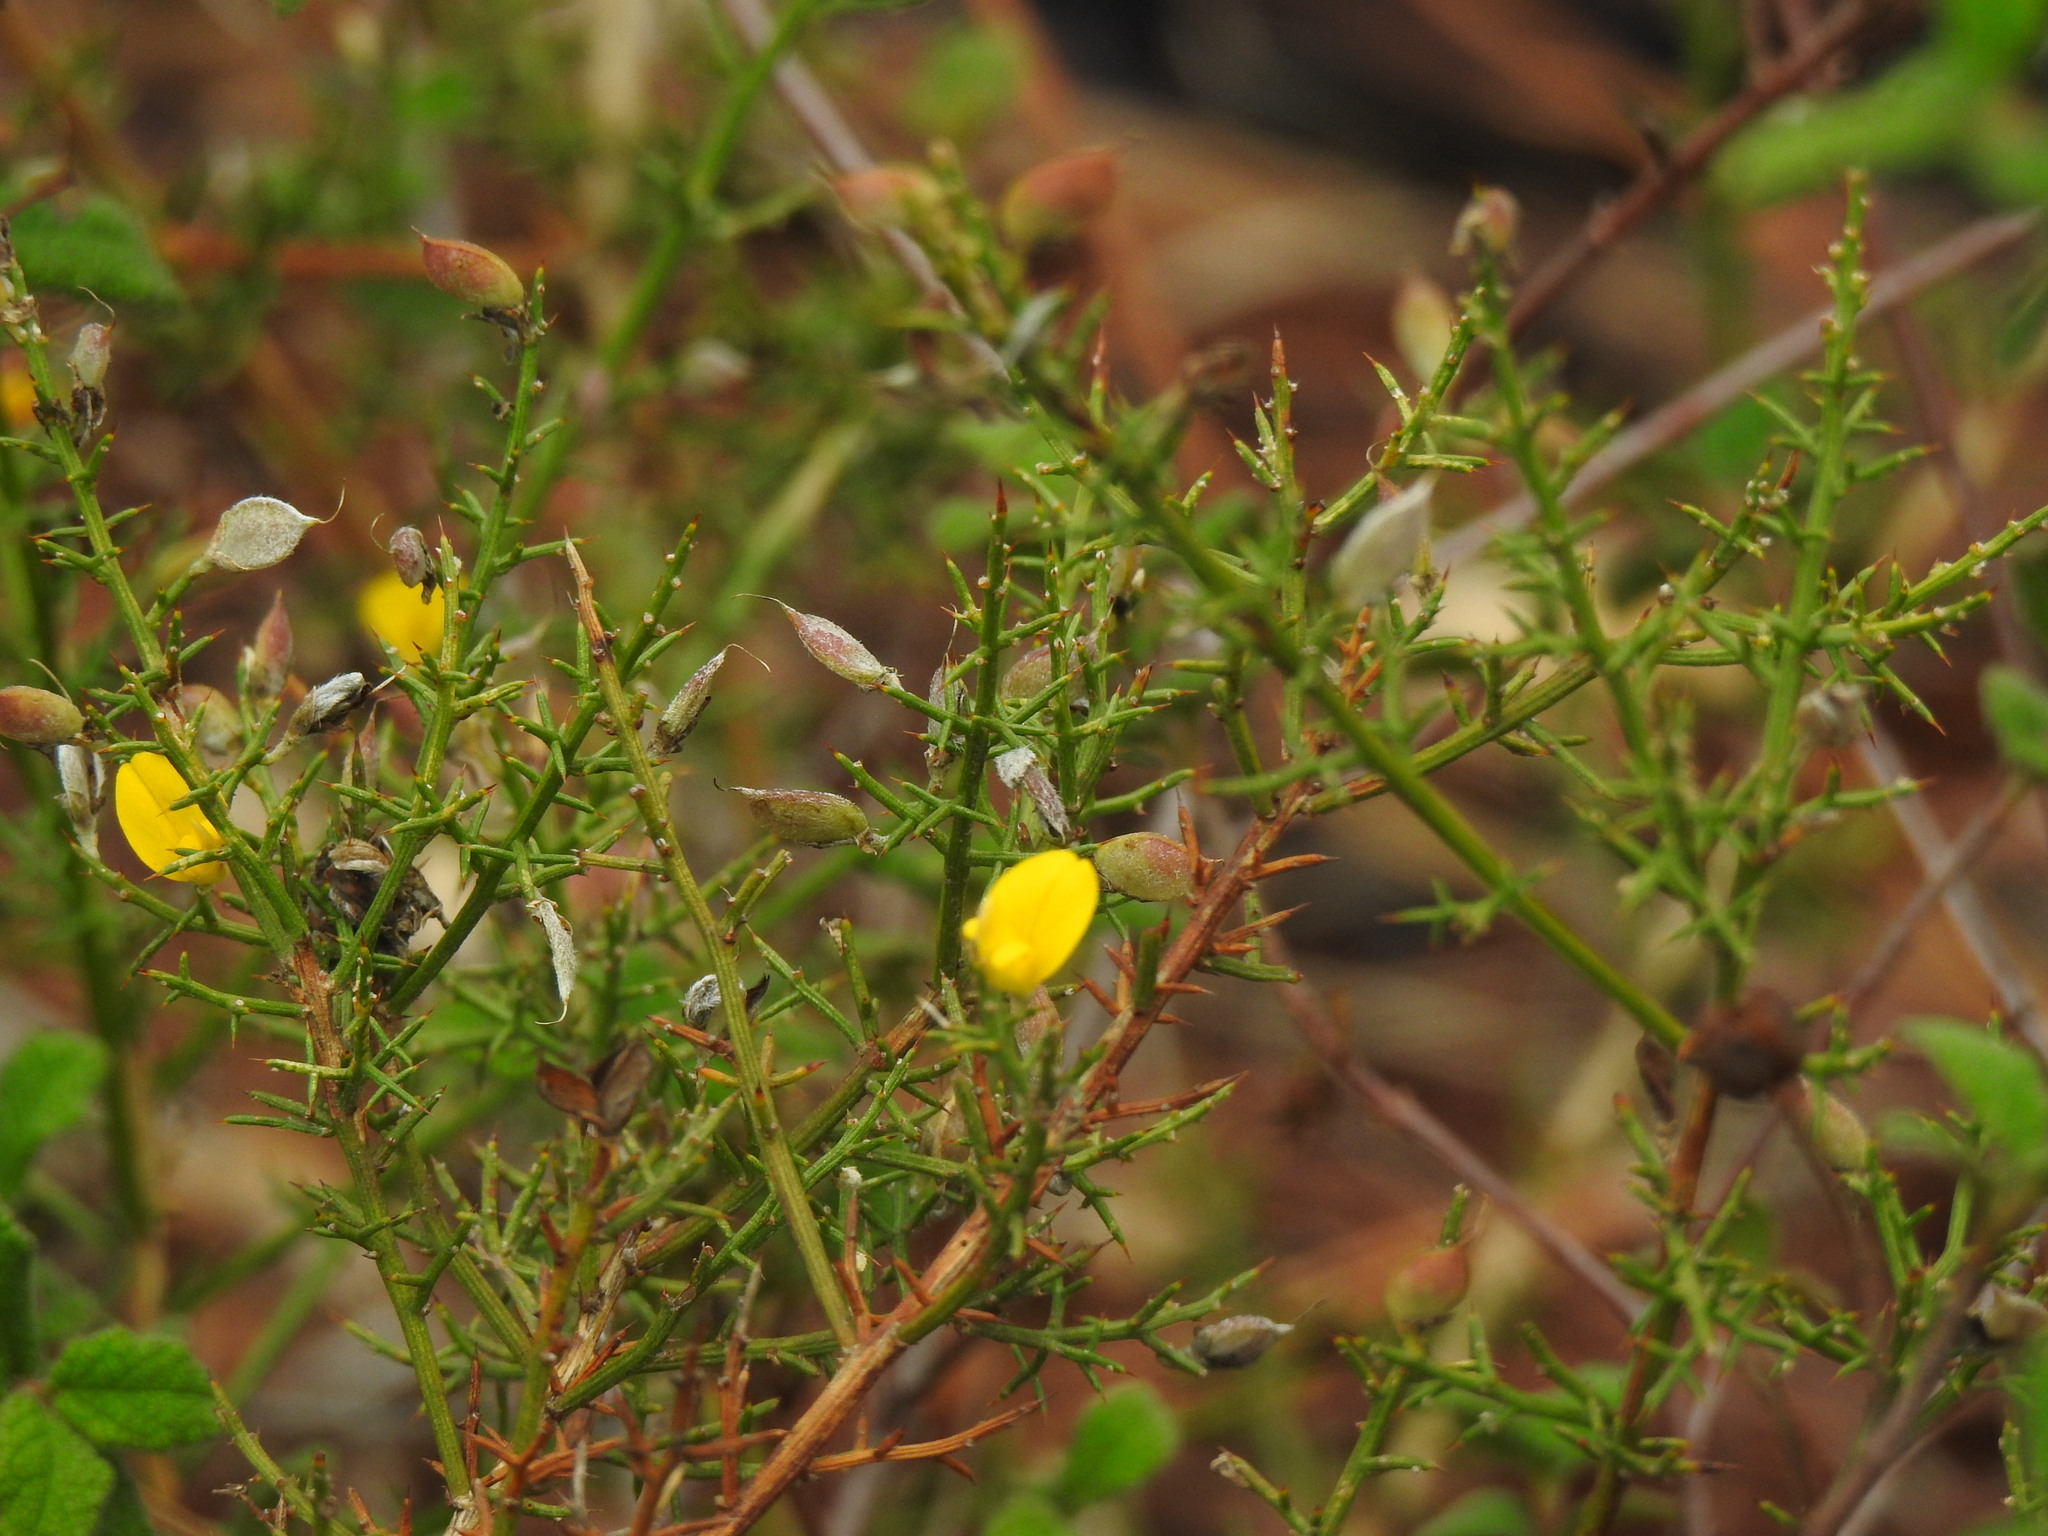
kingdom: Plantae
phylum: Tracheophyta
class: Magnoliopsida
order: Fabales
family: Fabaceae
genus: Stauracanthus
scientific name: Stauracanthus boivinii
